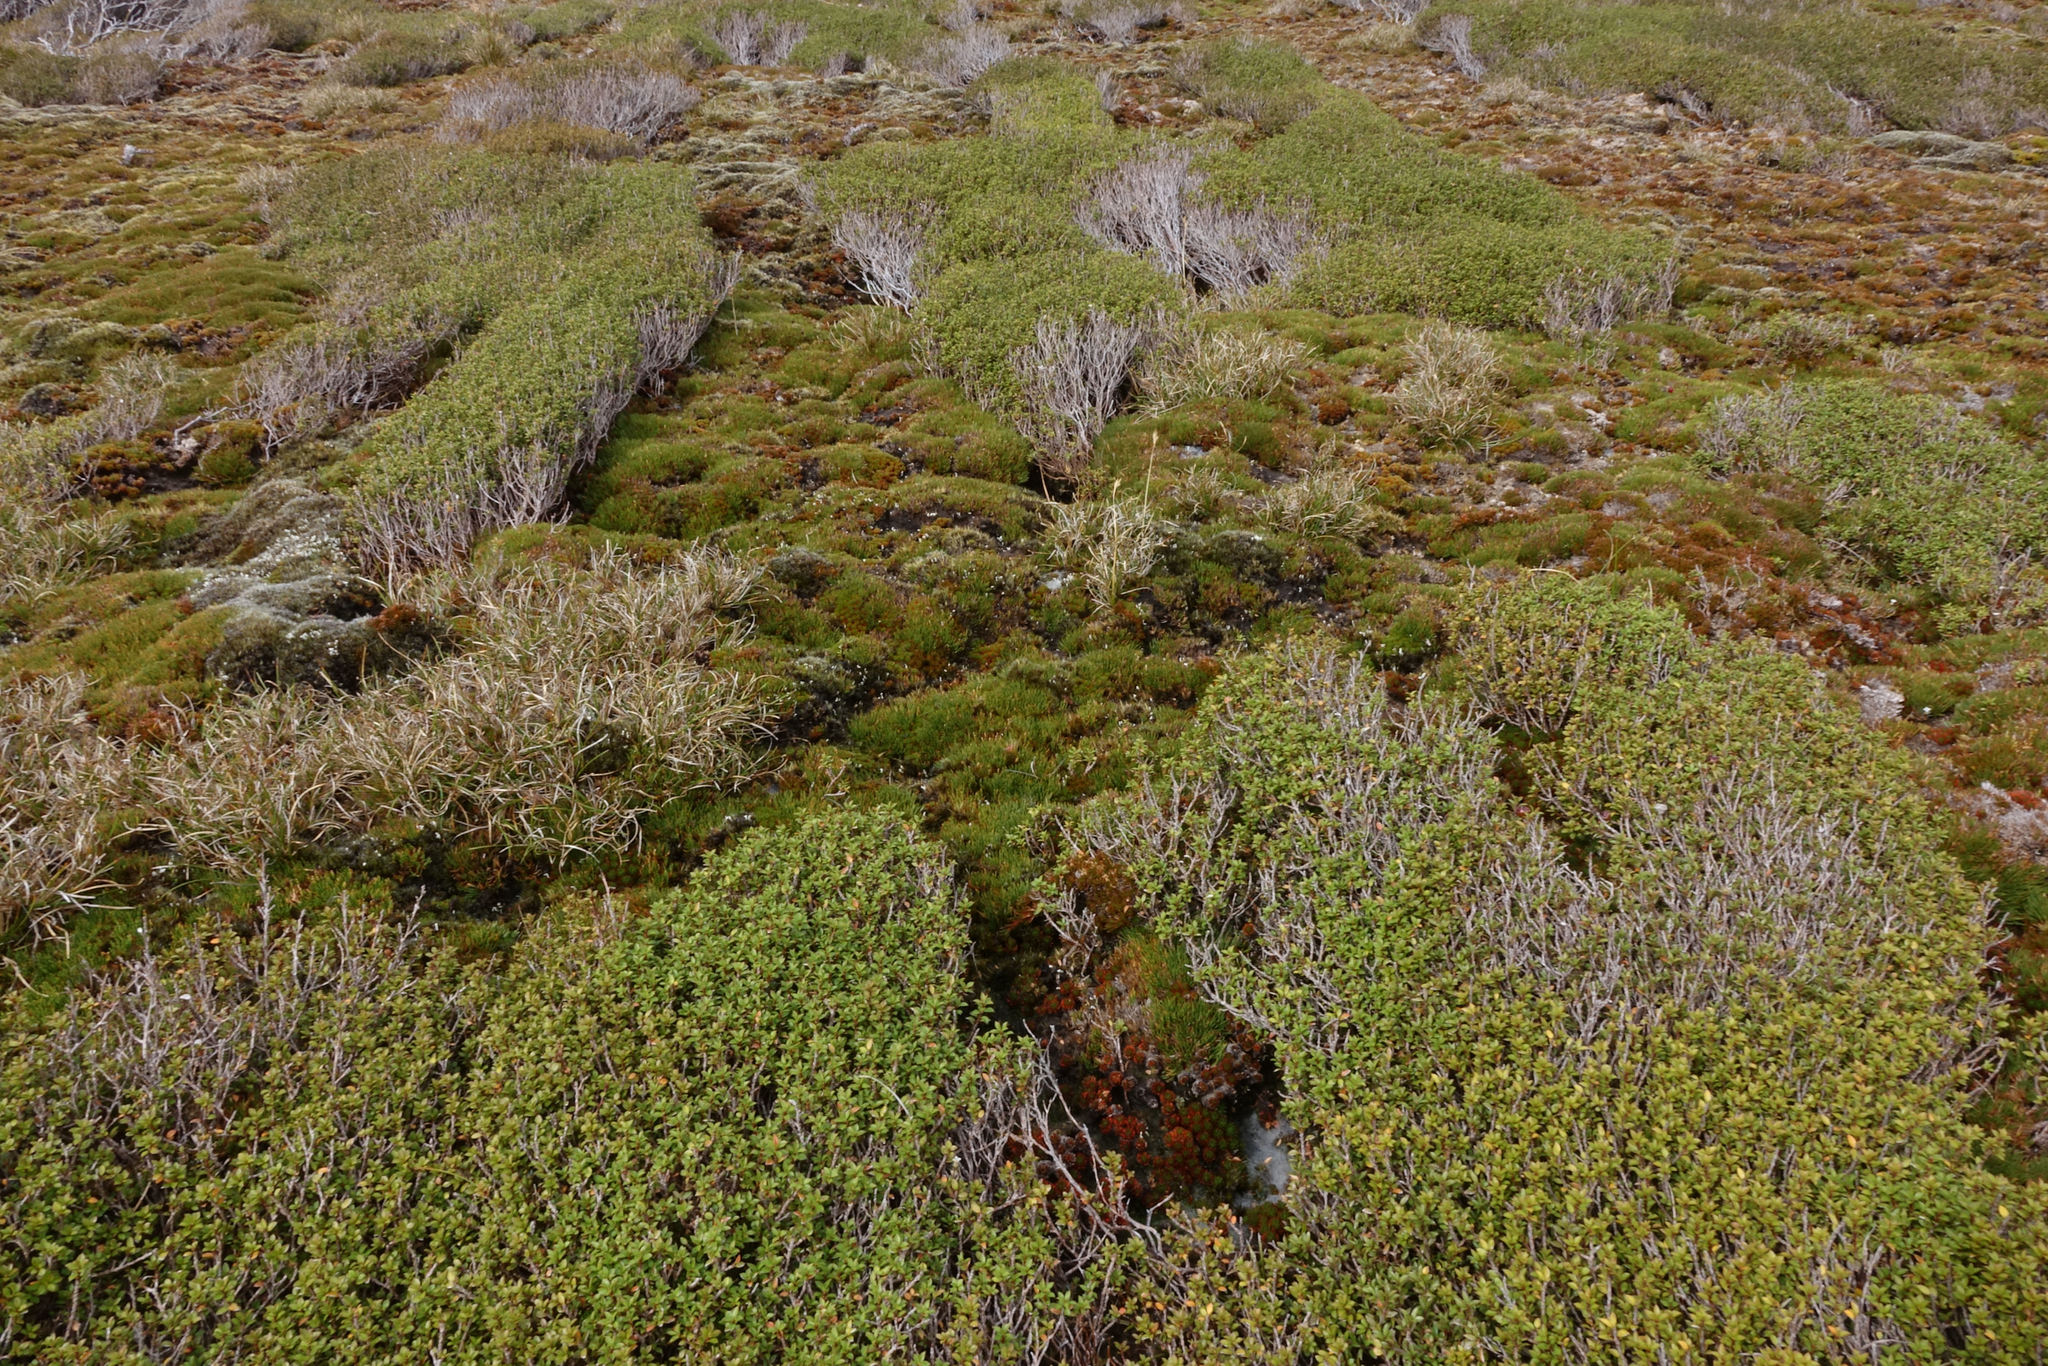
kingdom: Plantae
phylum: Tracheophyta
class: Magnoliopsida
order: Myrtales
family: Myrtaceae
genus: Leptospermum
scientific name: Leptospermum scoparium
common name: Broom tea-tree
